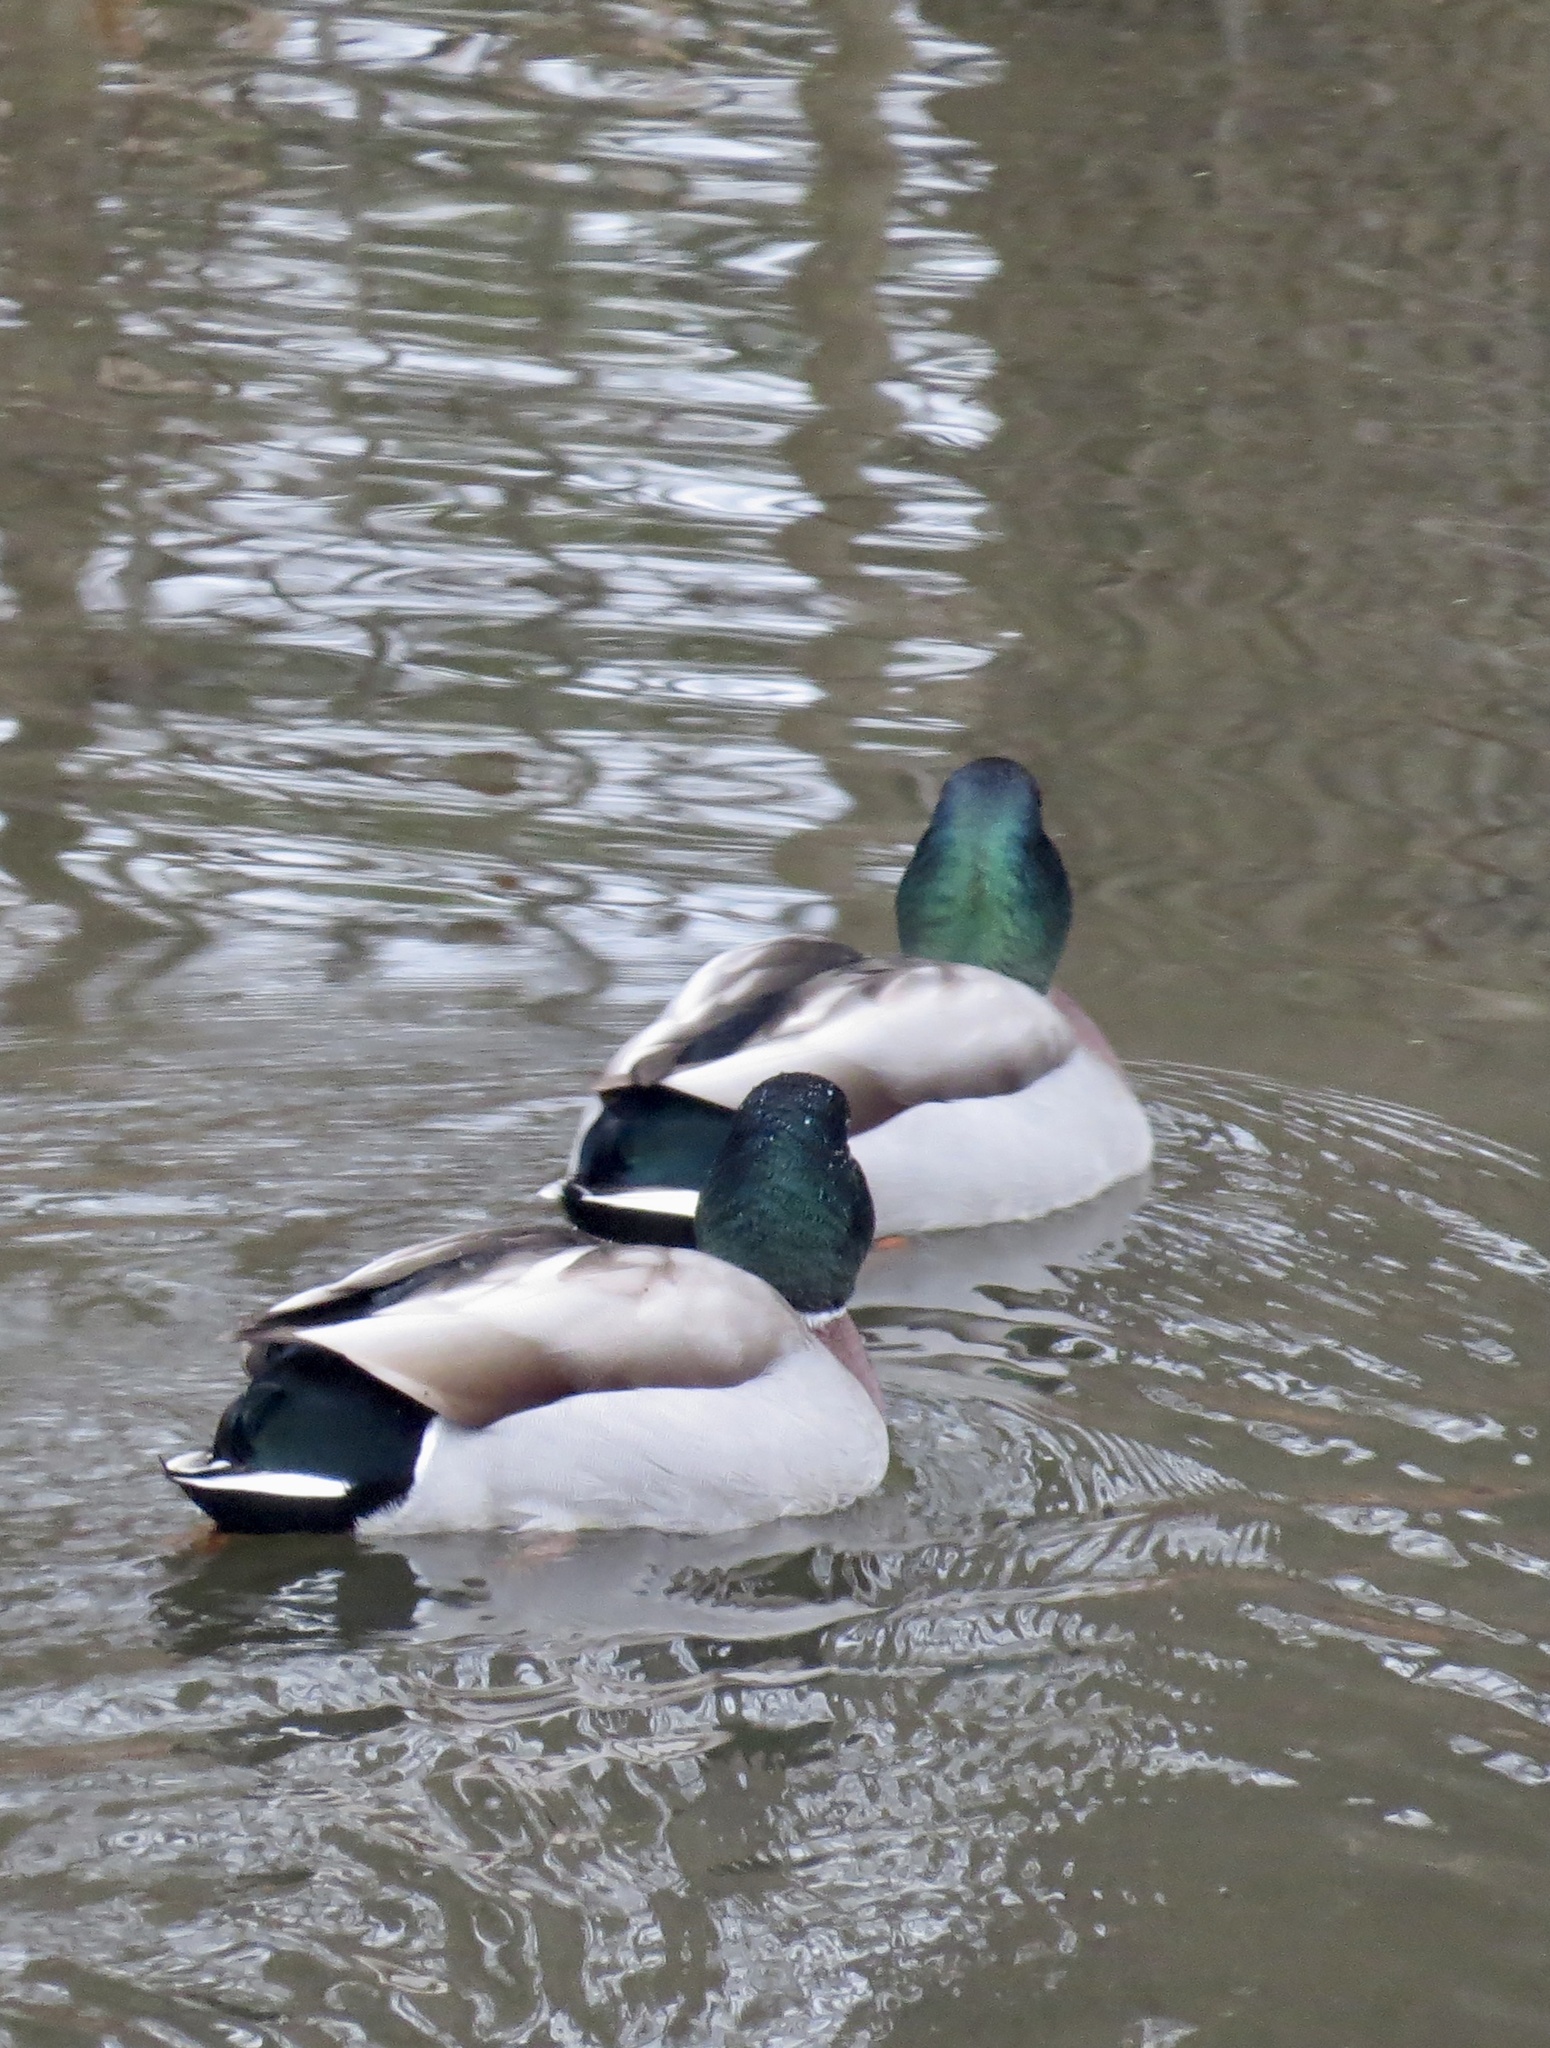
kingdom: Animalia
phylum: Chordata
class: Aves
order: Anseriformes
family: Anatidae
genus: Anas
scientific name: Anas platyrhynchos
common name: Mallard
